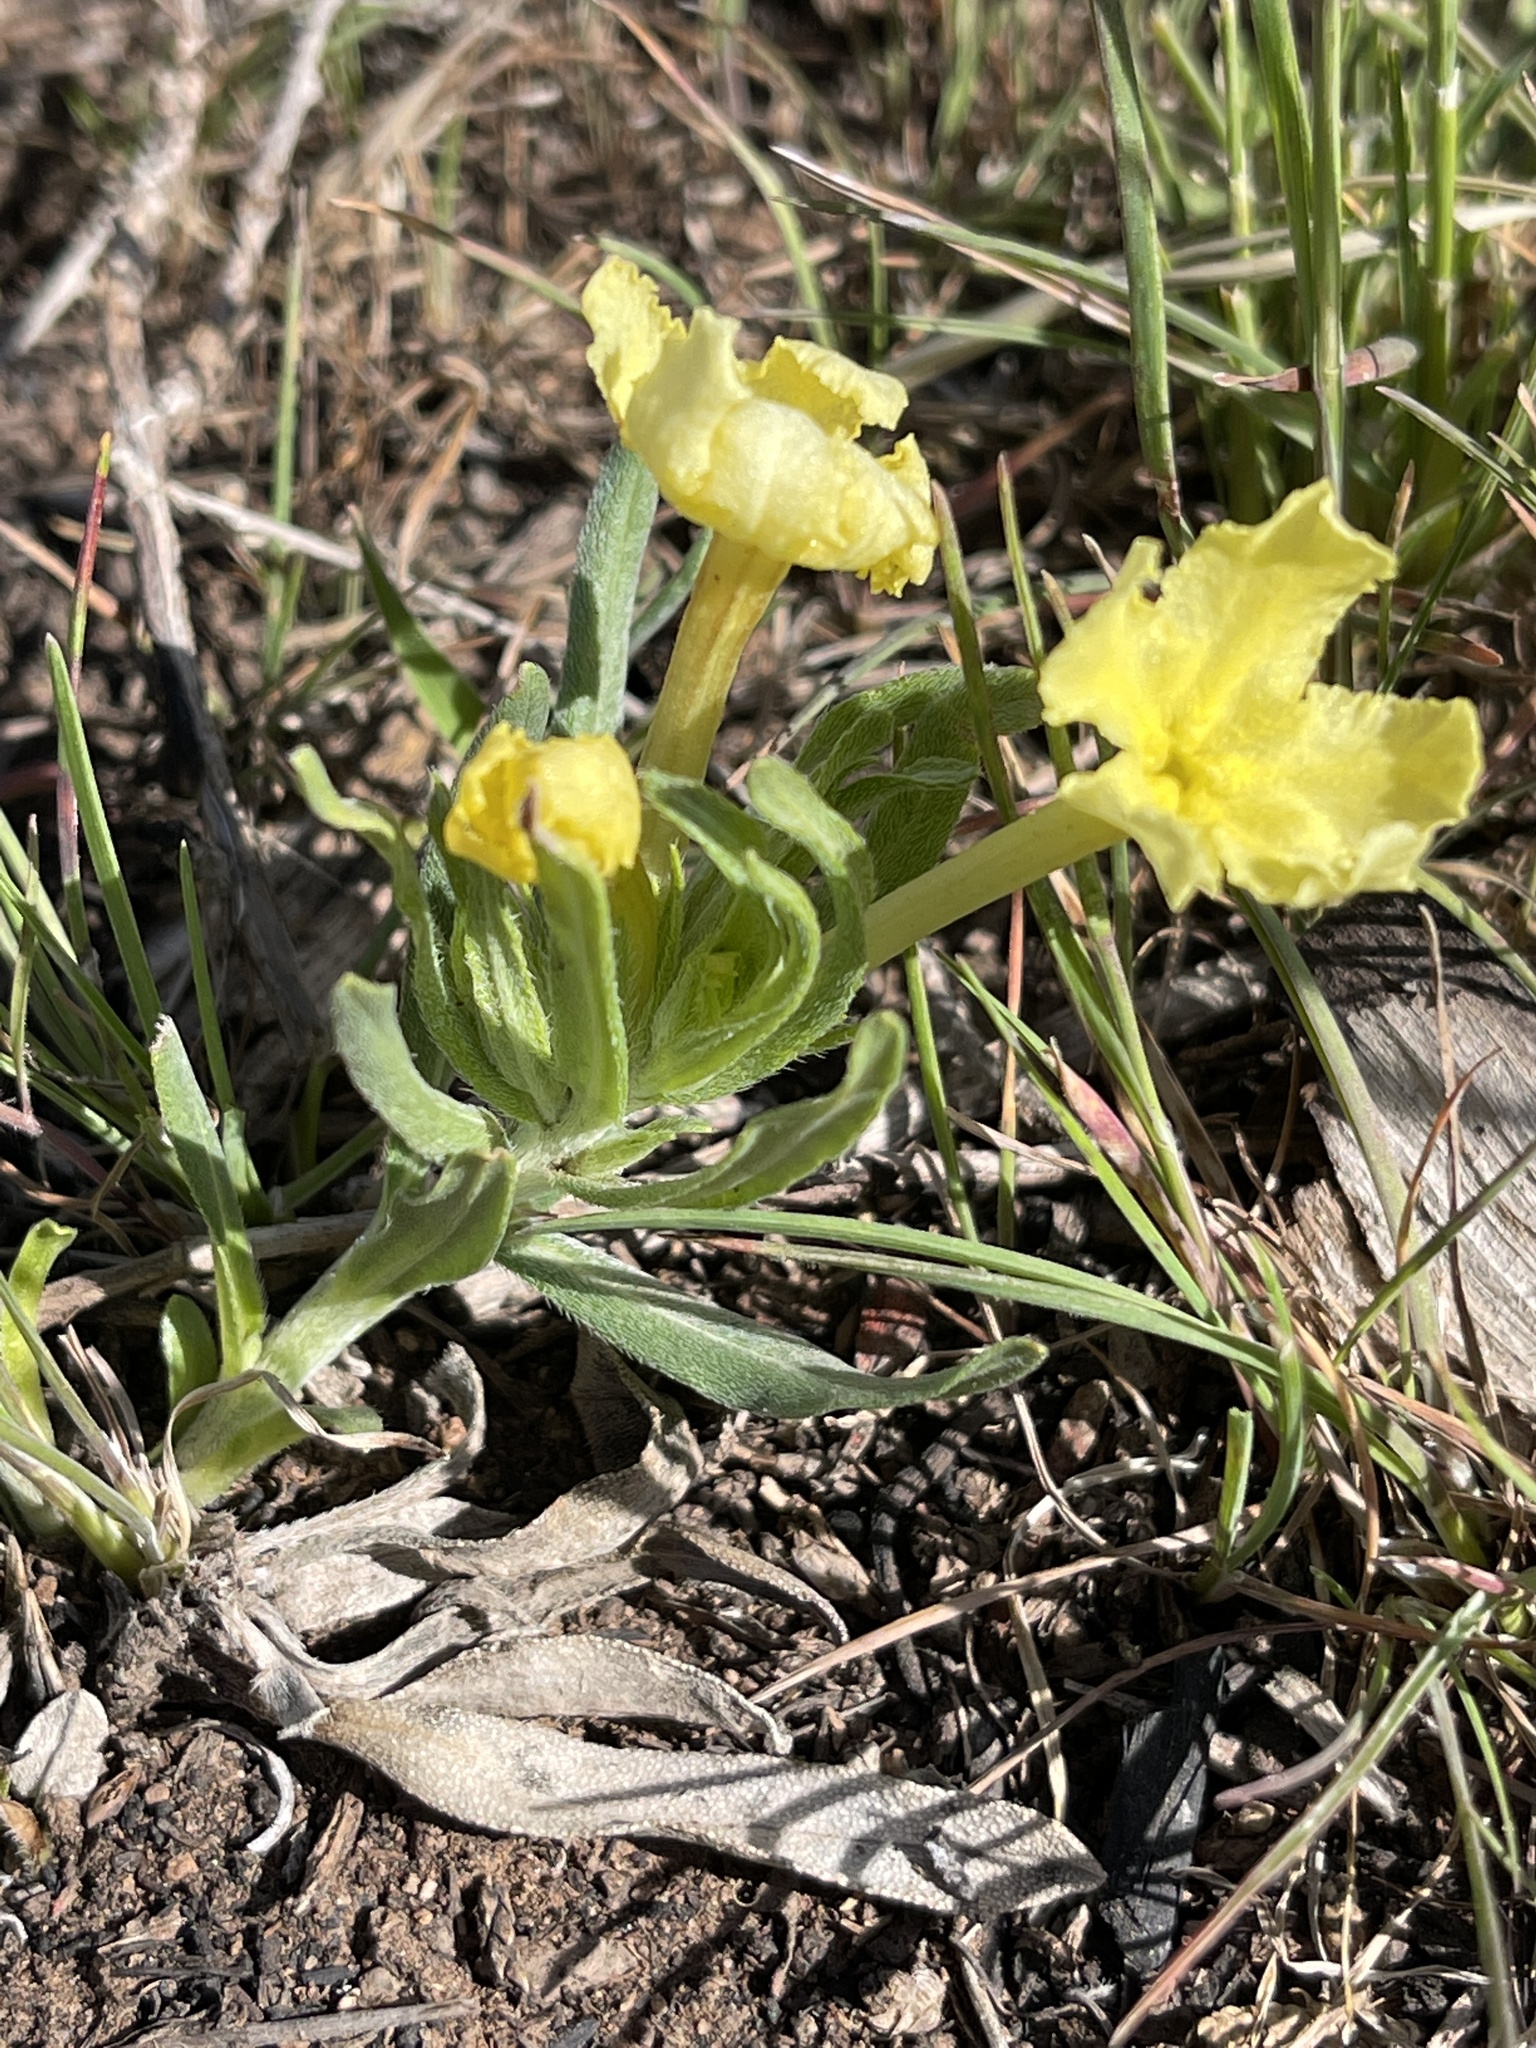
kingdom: Plantae
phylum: Tracheophyta
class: Magnoliopsida
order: Boraginales
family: Boraginaceae
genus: Lithospermum
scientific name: Lithospermum incisum
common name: Fringed gromwell
